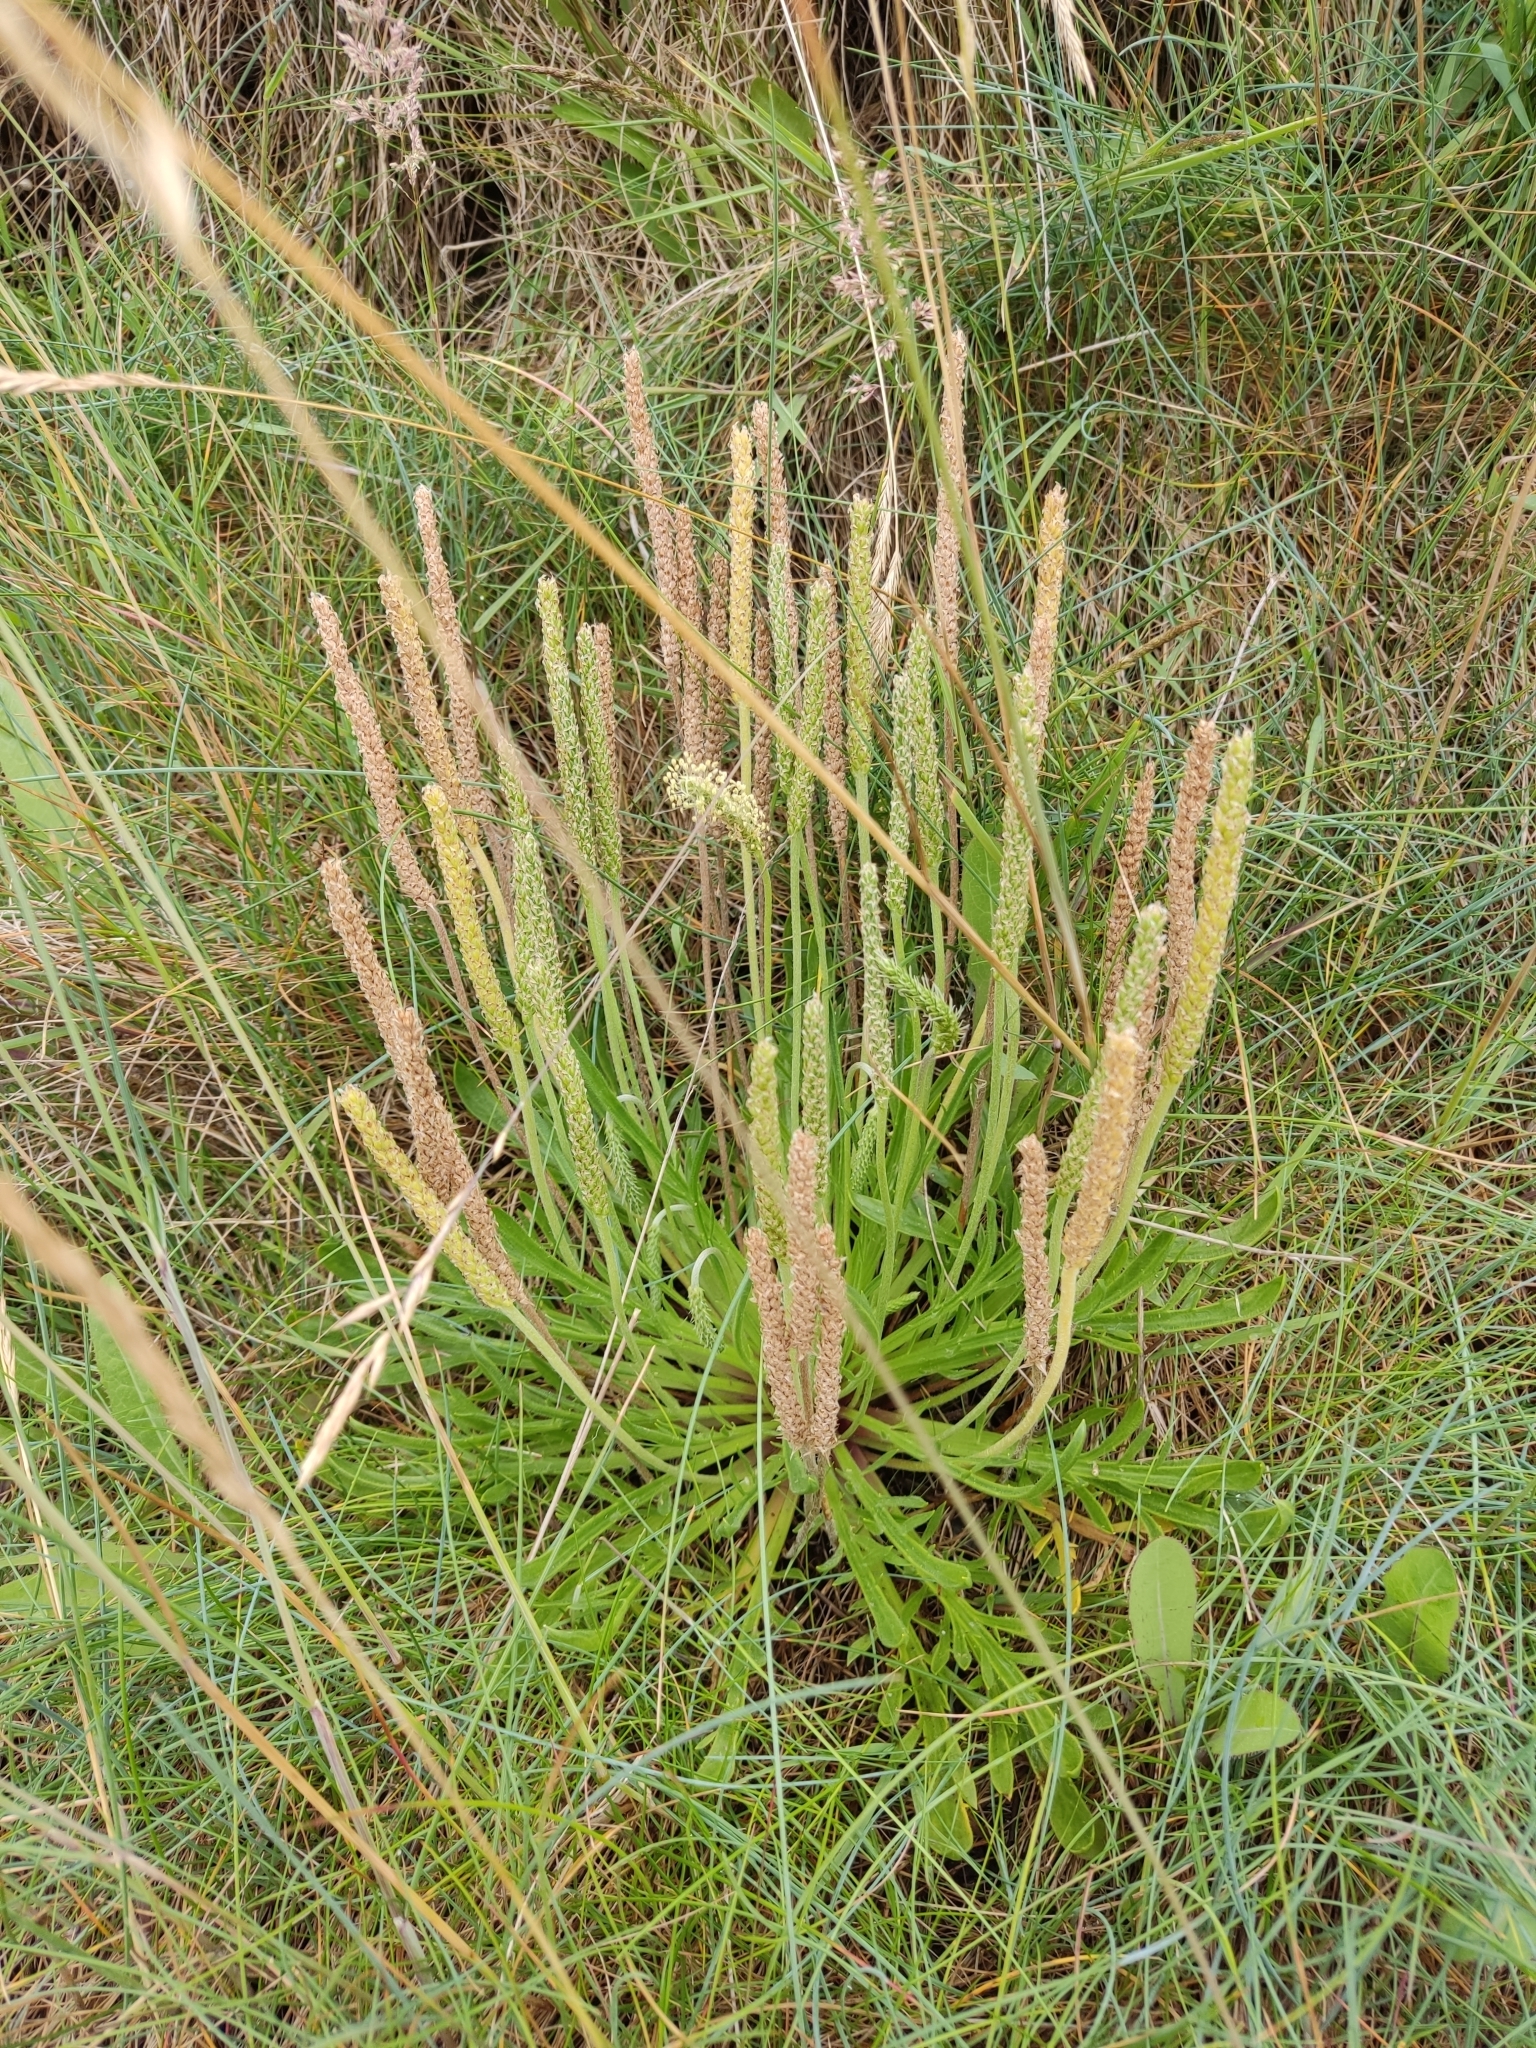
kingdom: Plantae
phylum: Tracheophyta
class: Magnoliopsida
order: Lamiales
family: Plantaginaceae
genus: Plantago
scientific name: Plantago coronopus
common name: Buck's-horn plantain
